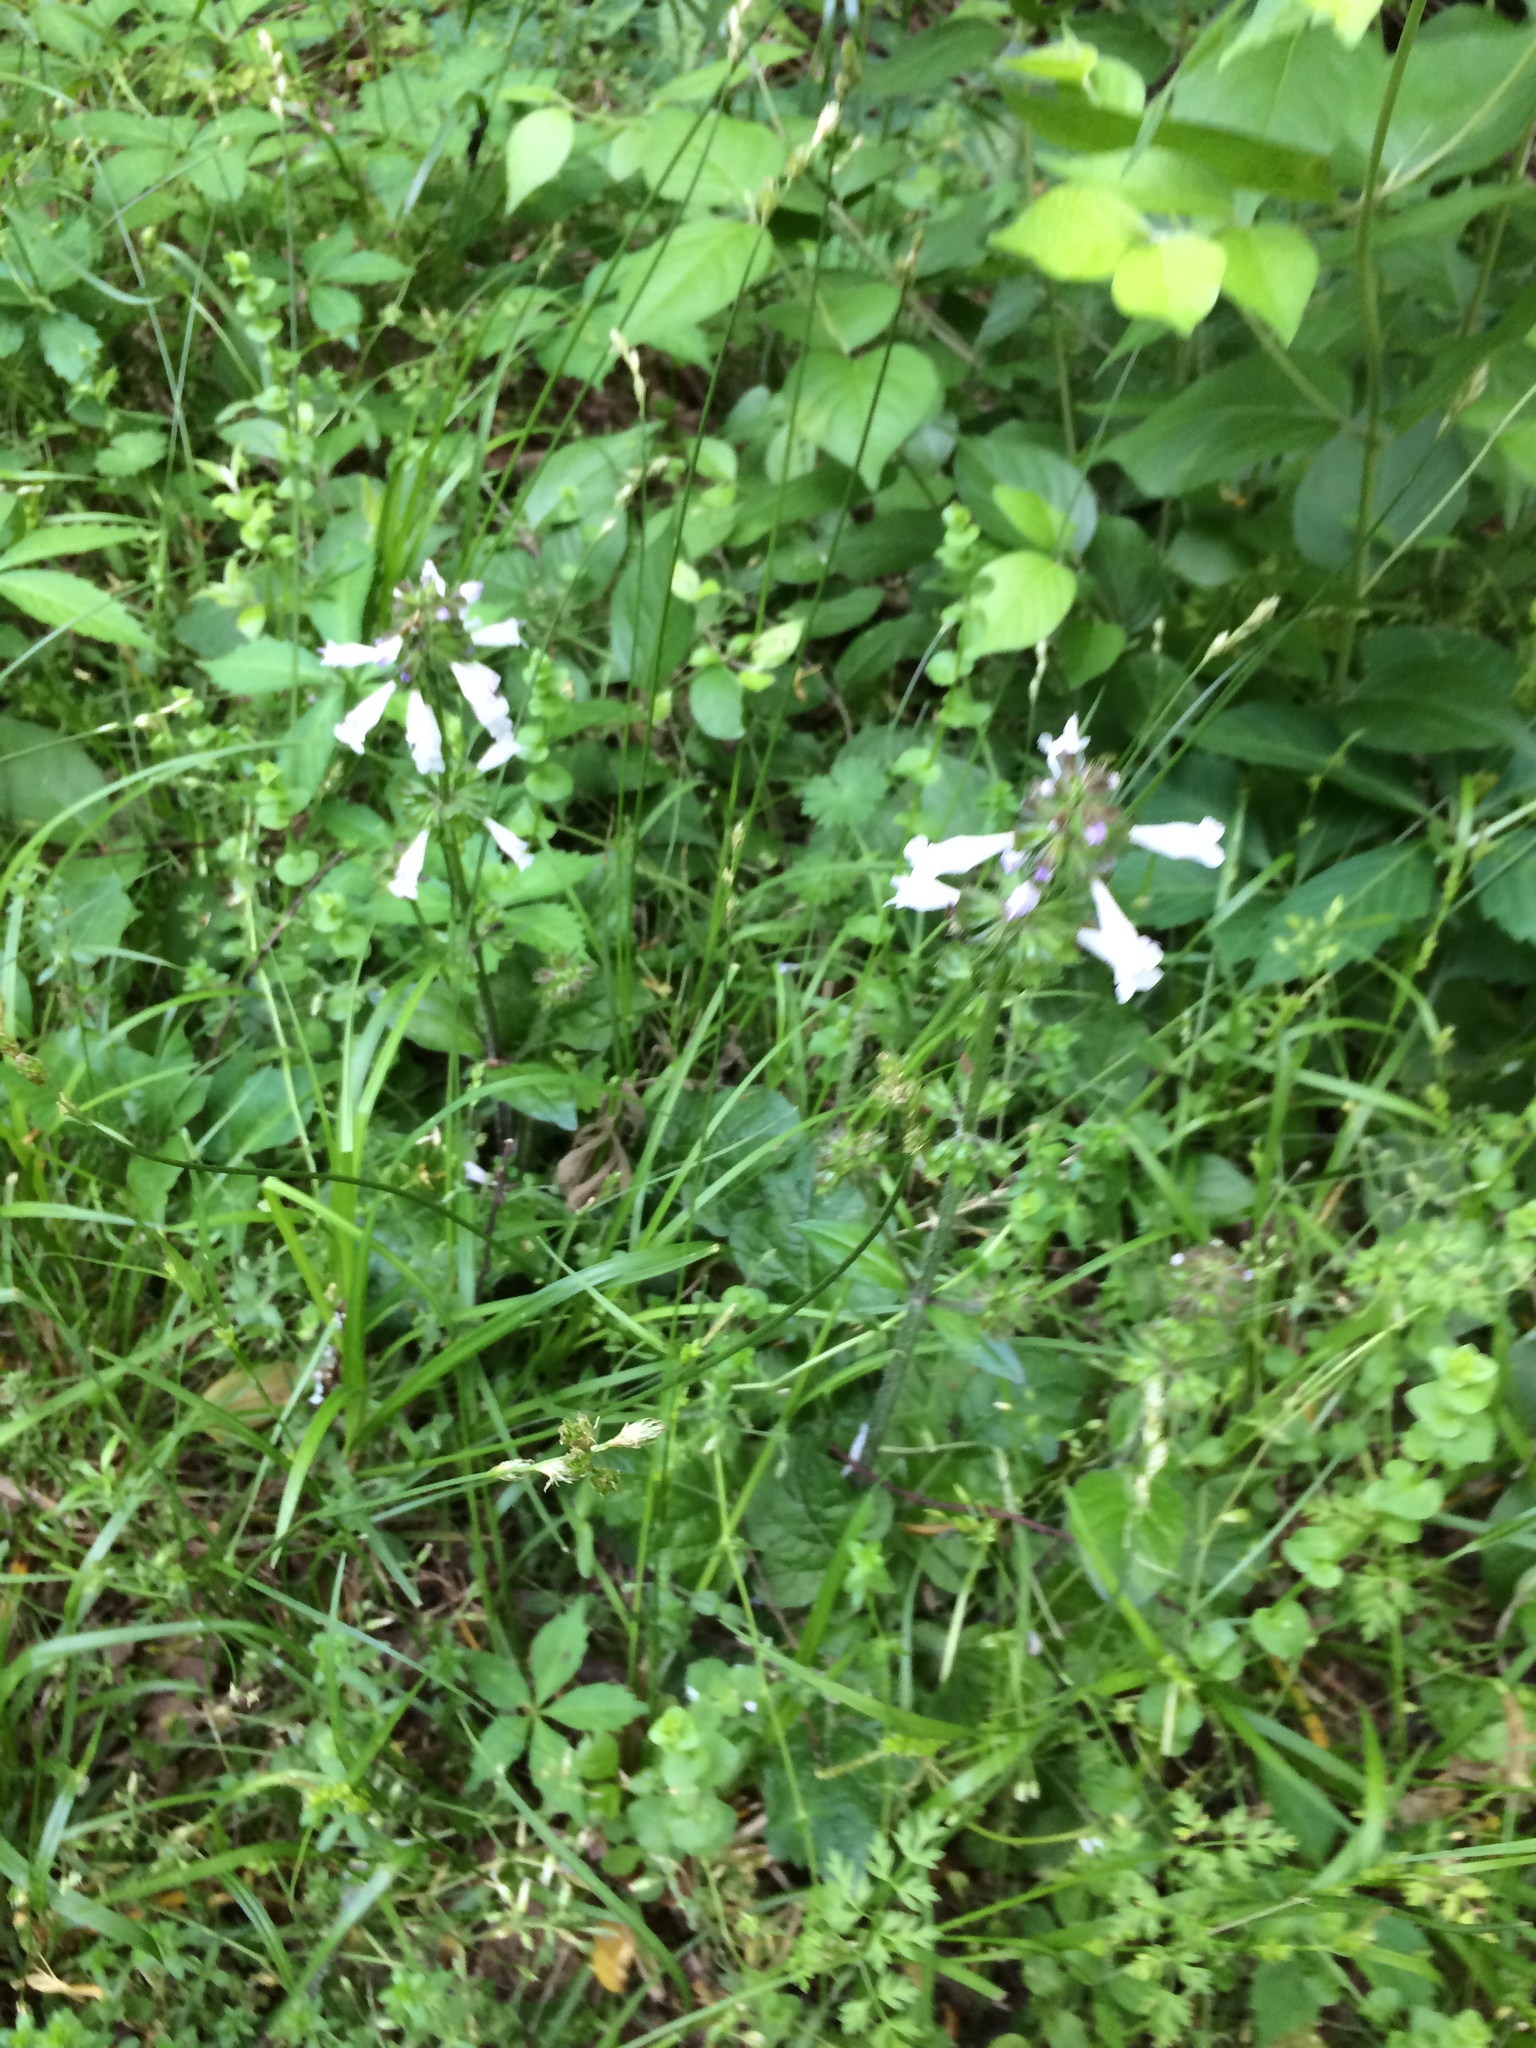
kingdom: Plantae
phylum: Tracheophyta
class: Magnoliopsida
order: Lamiales
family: Lamiaceae
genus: Salvia
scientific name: Salvia lyrata
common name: Cancerweed
